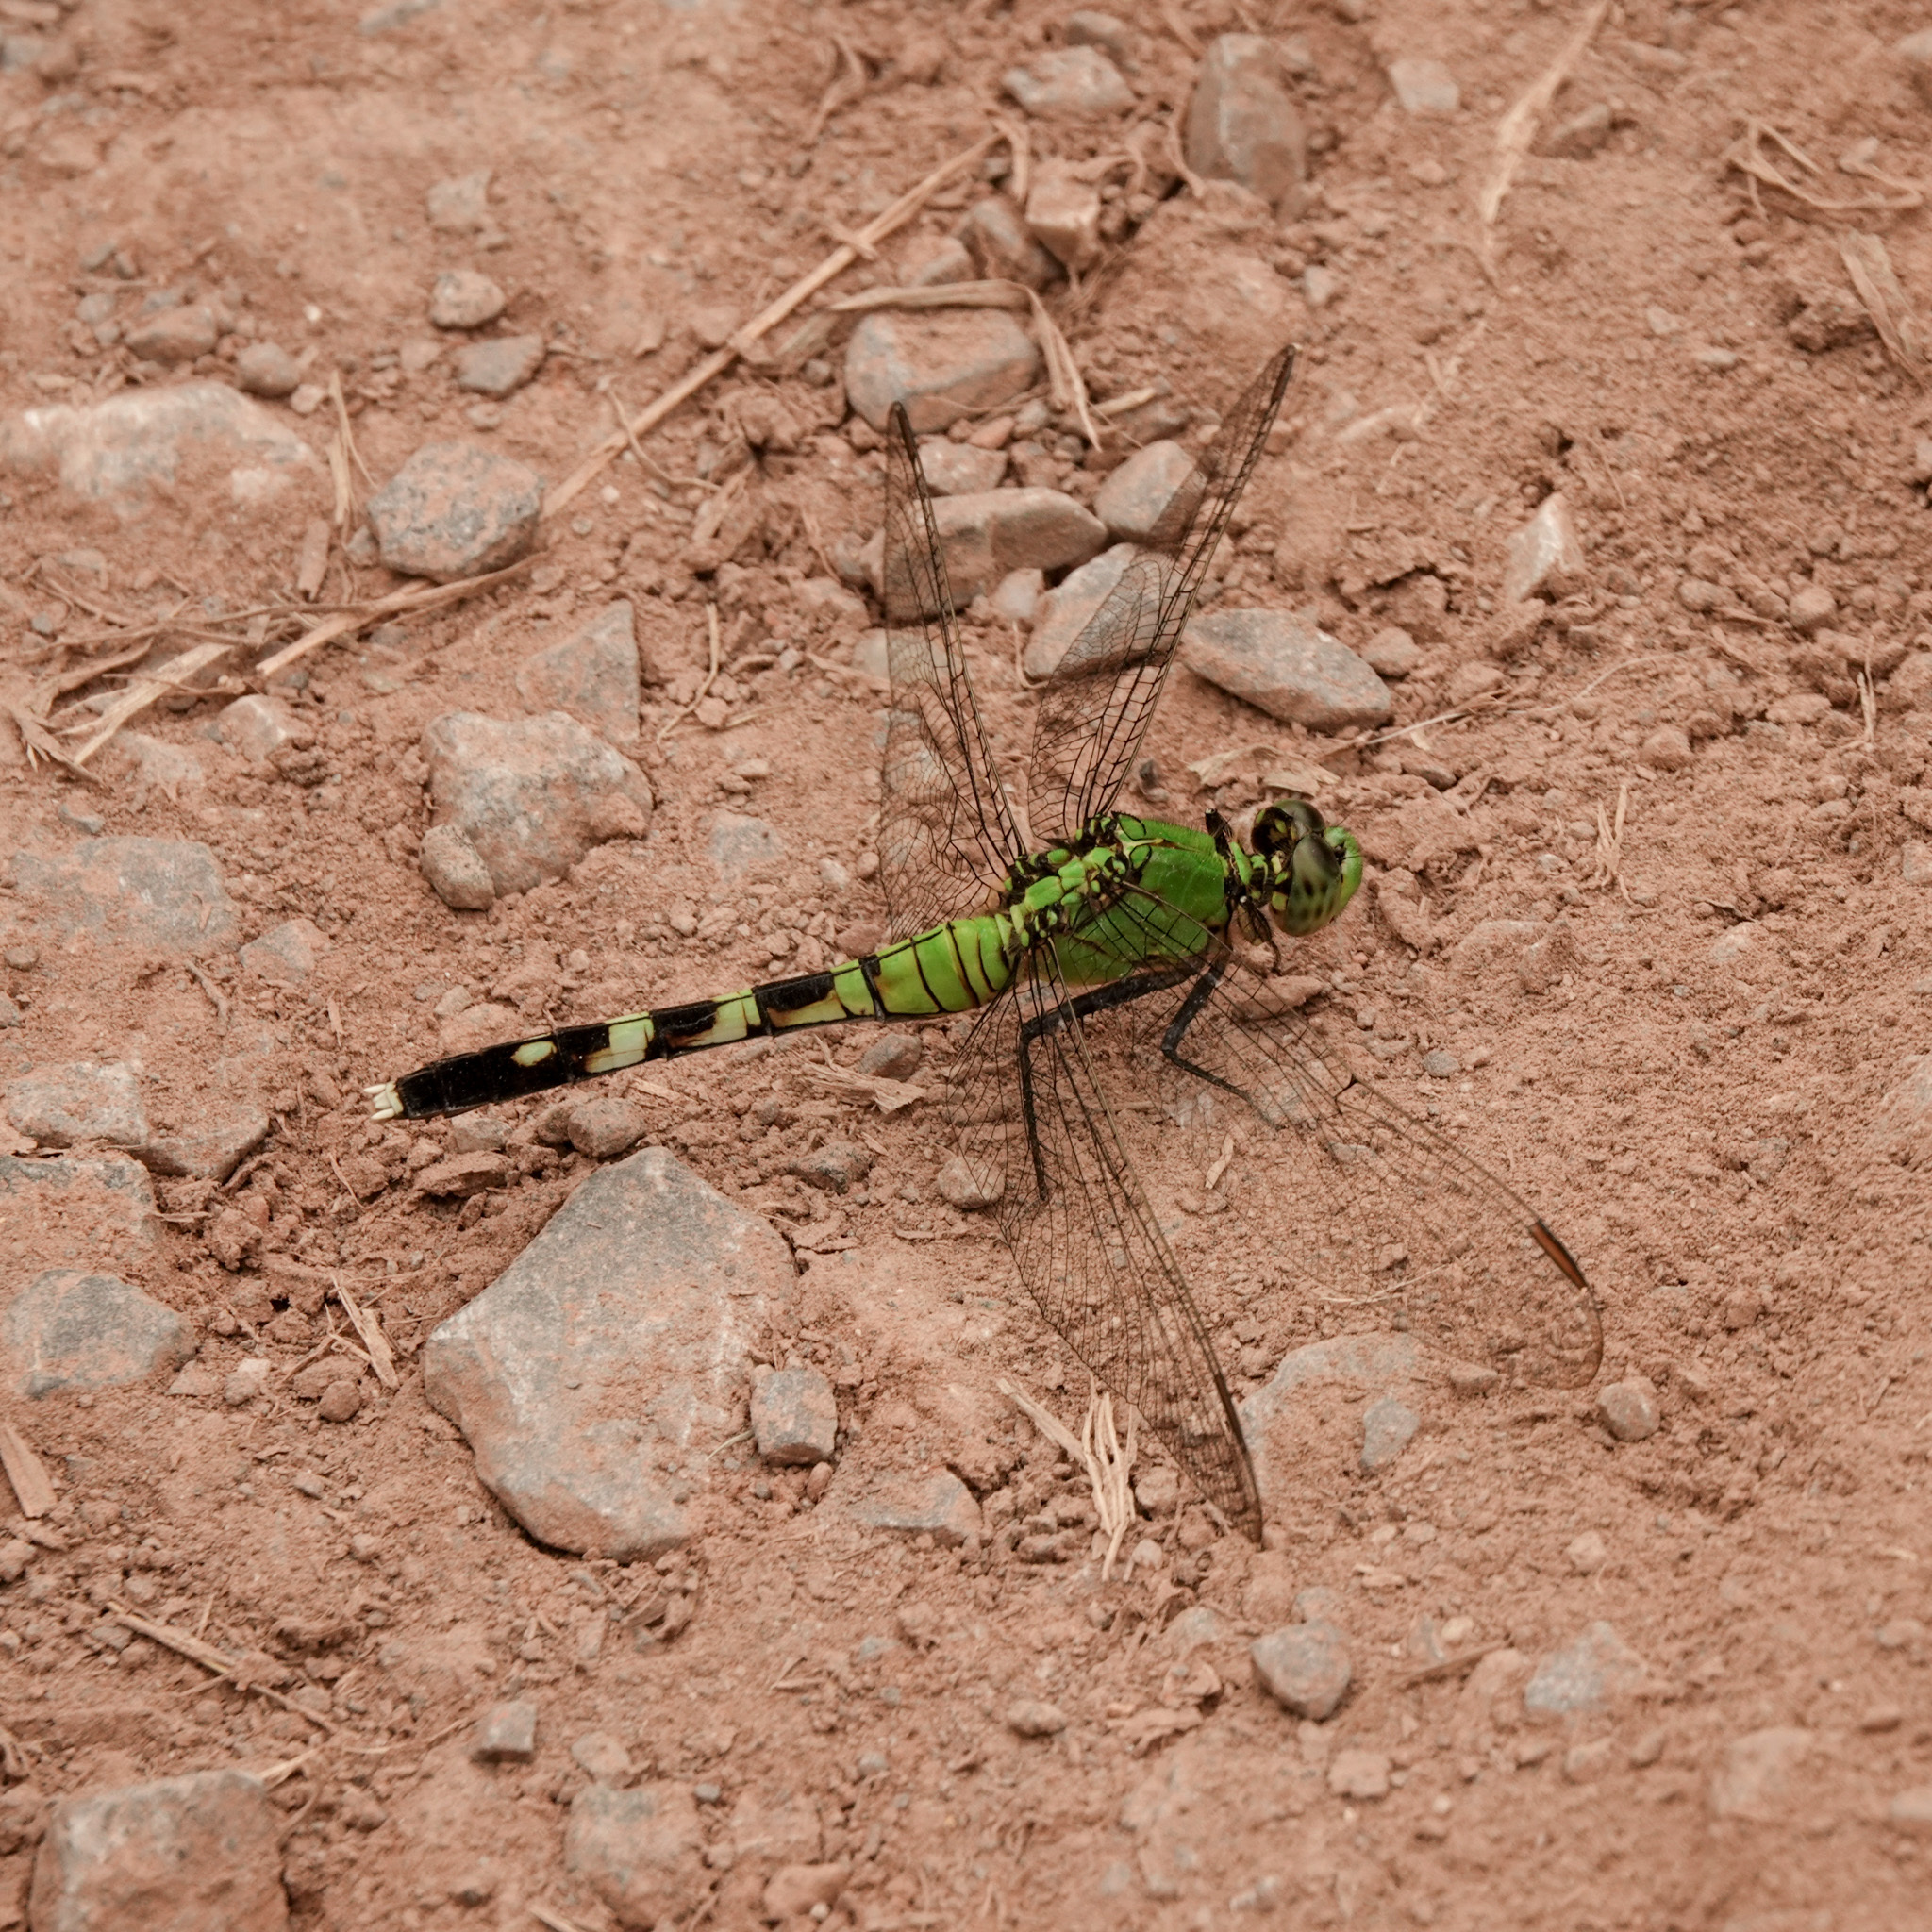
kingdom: Animalia
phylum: Arthropoda
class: Insecta
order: Odonata
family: Libellulidae
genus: Erythemis
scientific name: Erythemis simplicicollis
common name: Eastern pondhawk
